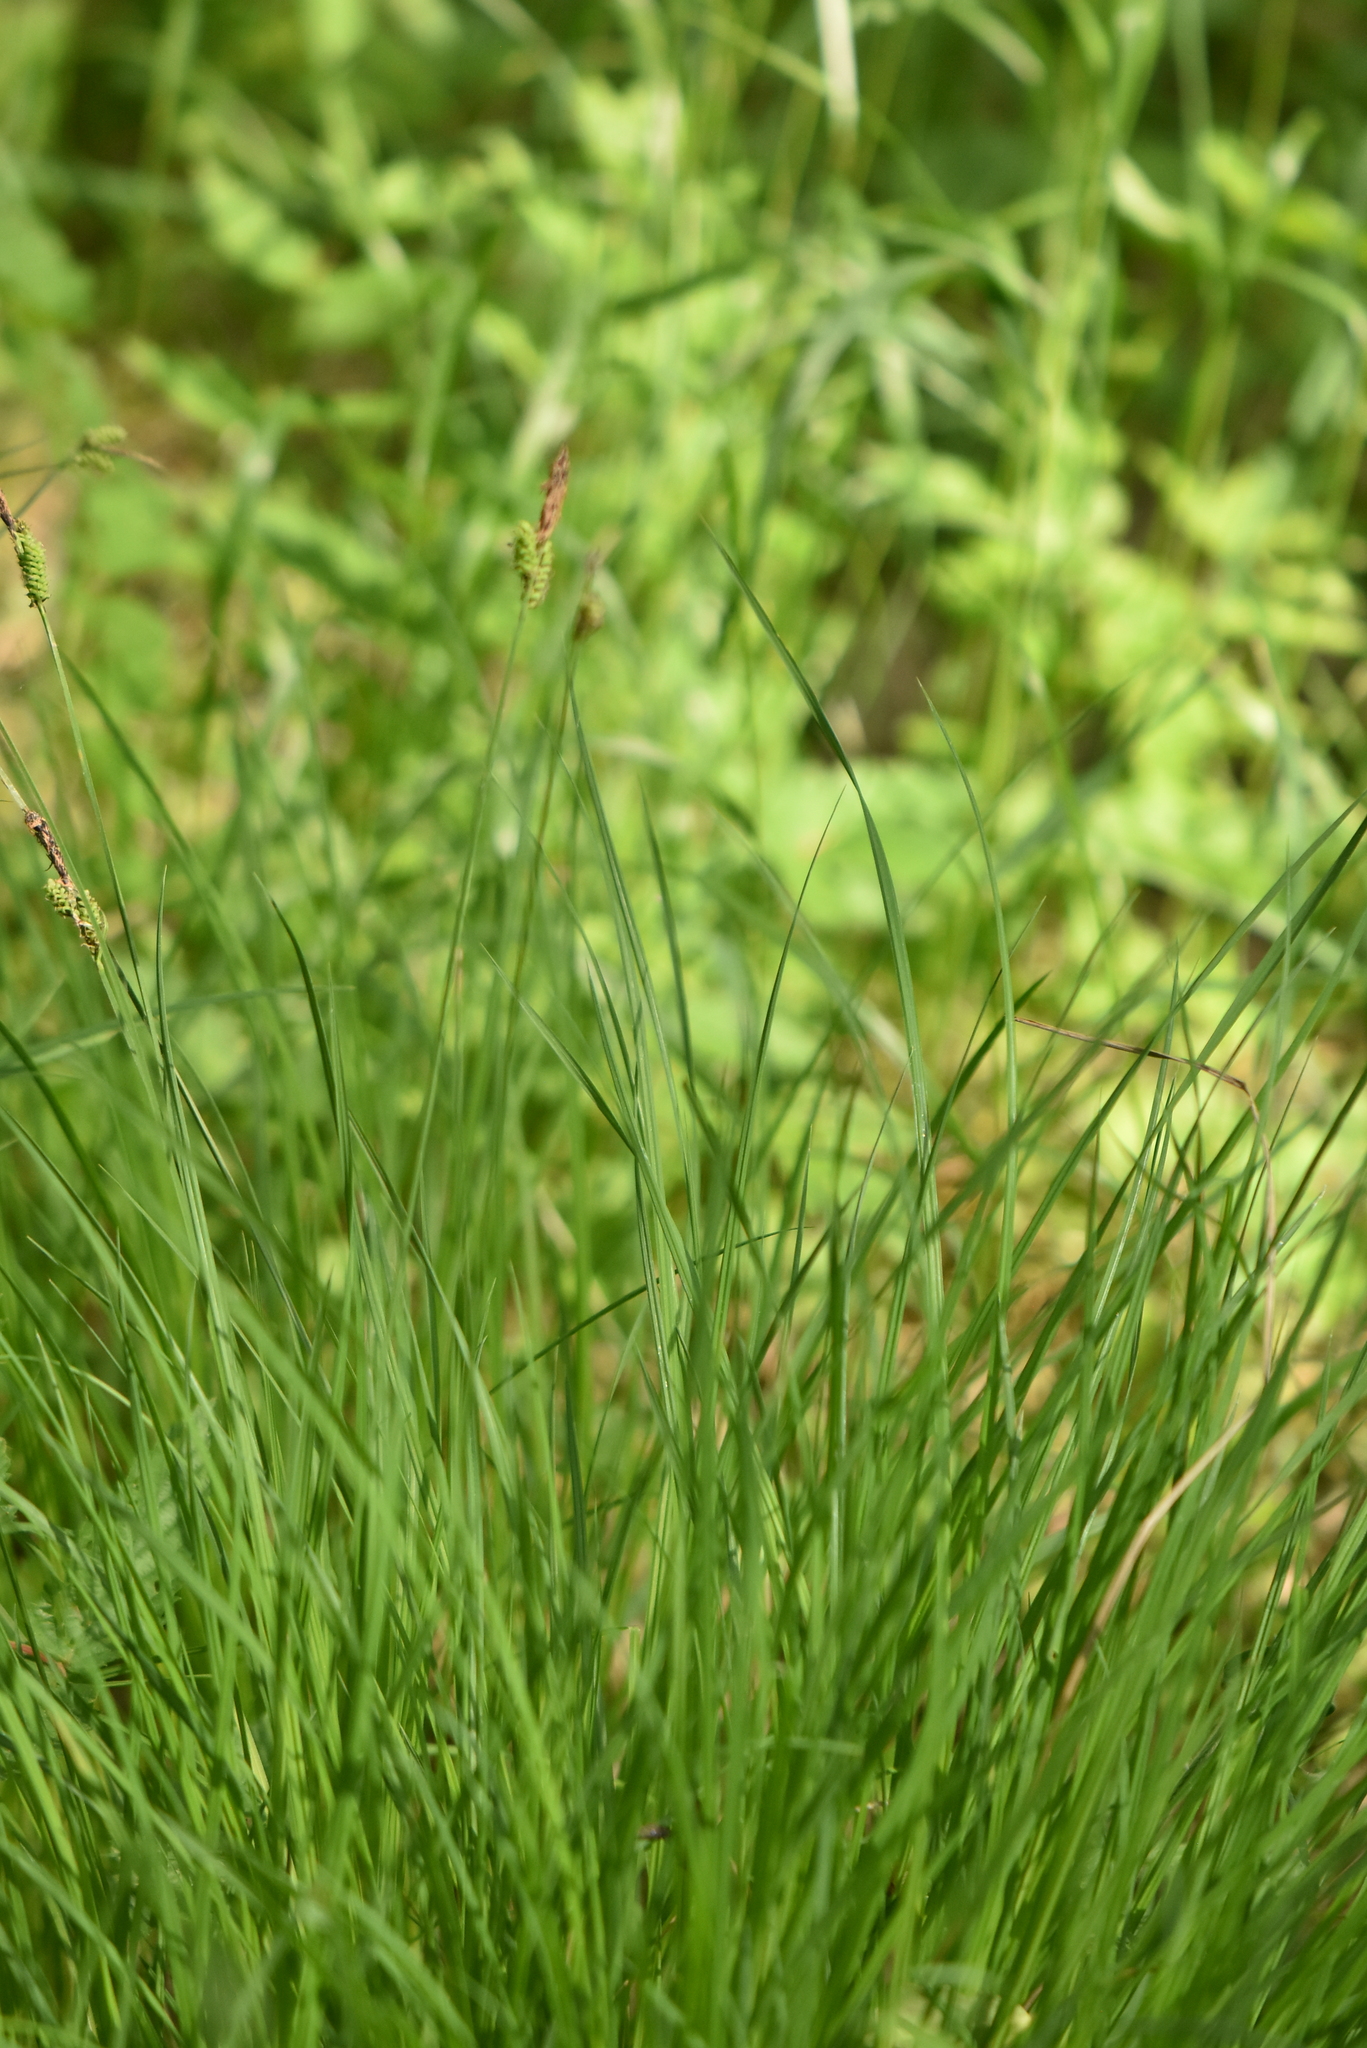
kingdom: Plantae
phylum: Tracheophyta
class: Liliopsida
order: Poales
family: Cyperaceae
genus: Carex
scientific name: Carex nigra
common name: Common sedge
